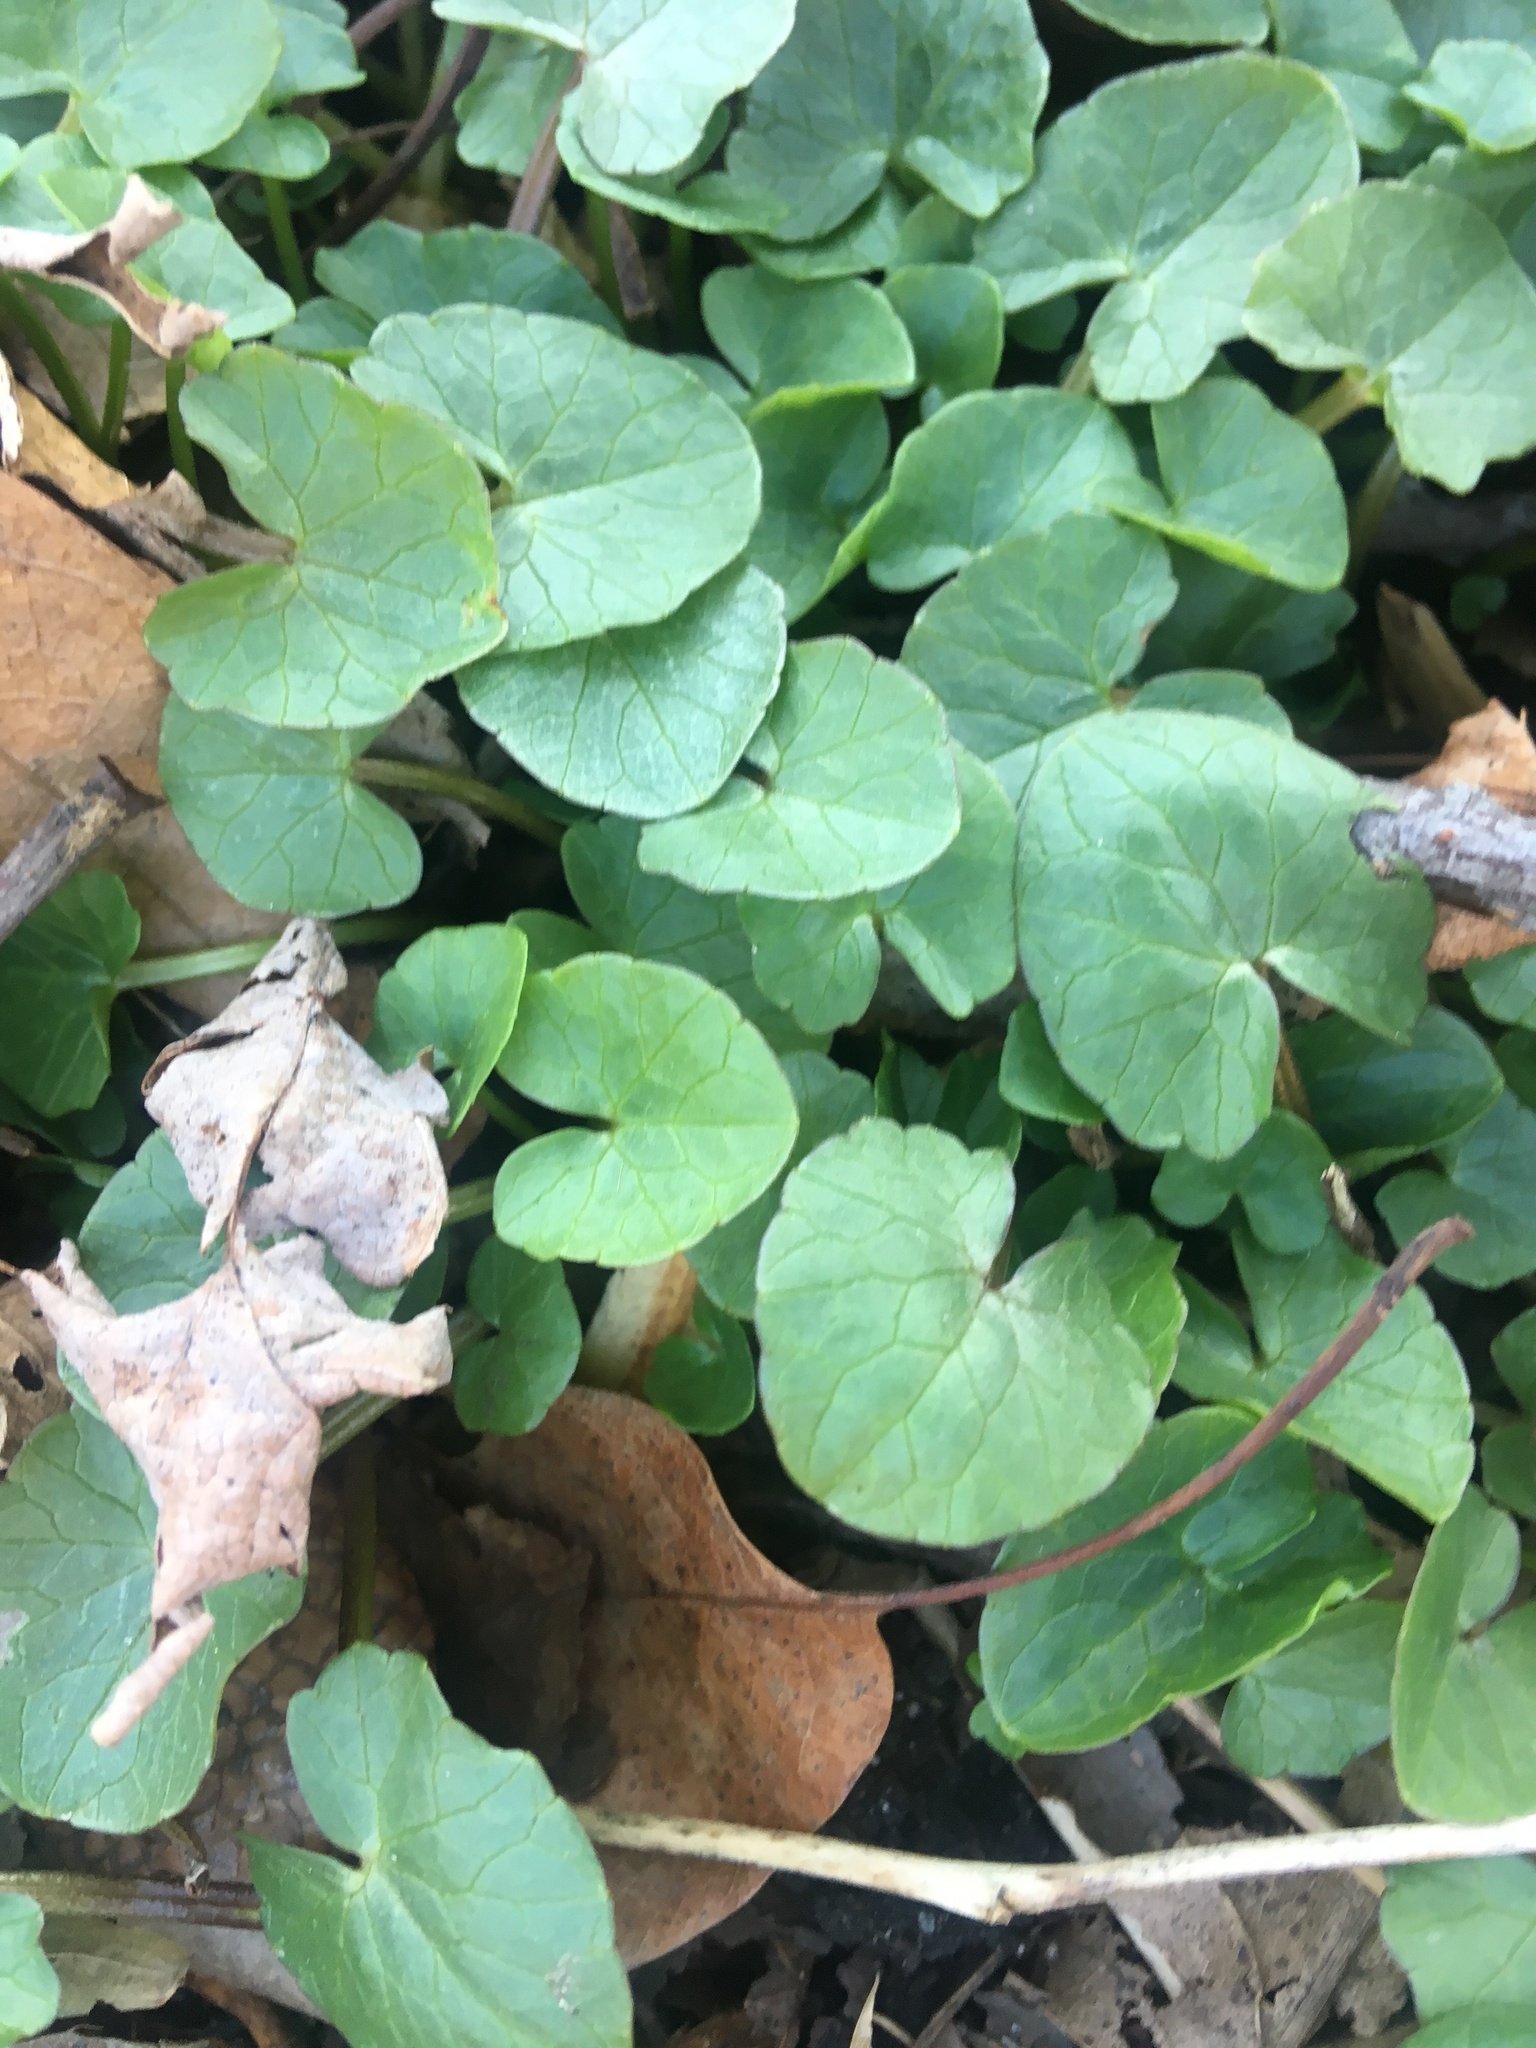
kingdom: Plantae
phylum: Tracheophyta
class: Magnoliopsida
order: Ranunculales
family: Ranunculaceae
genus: Ficaria
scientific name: Ficaria verna
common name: Lesser celandine
